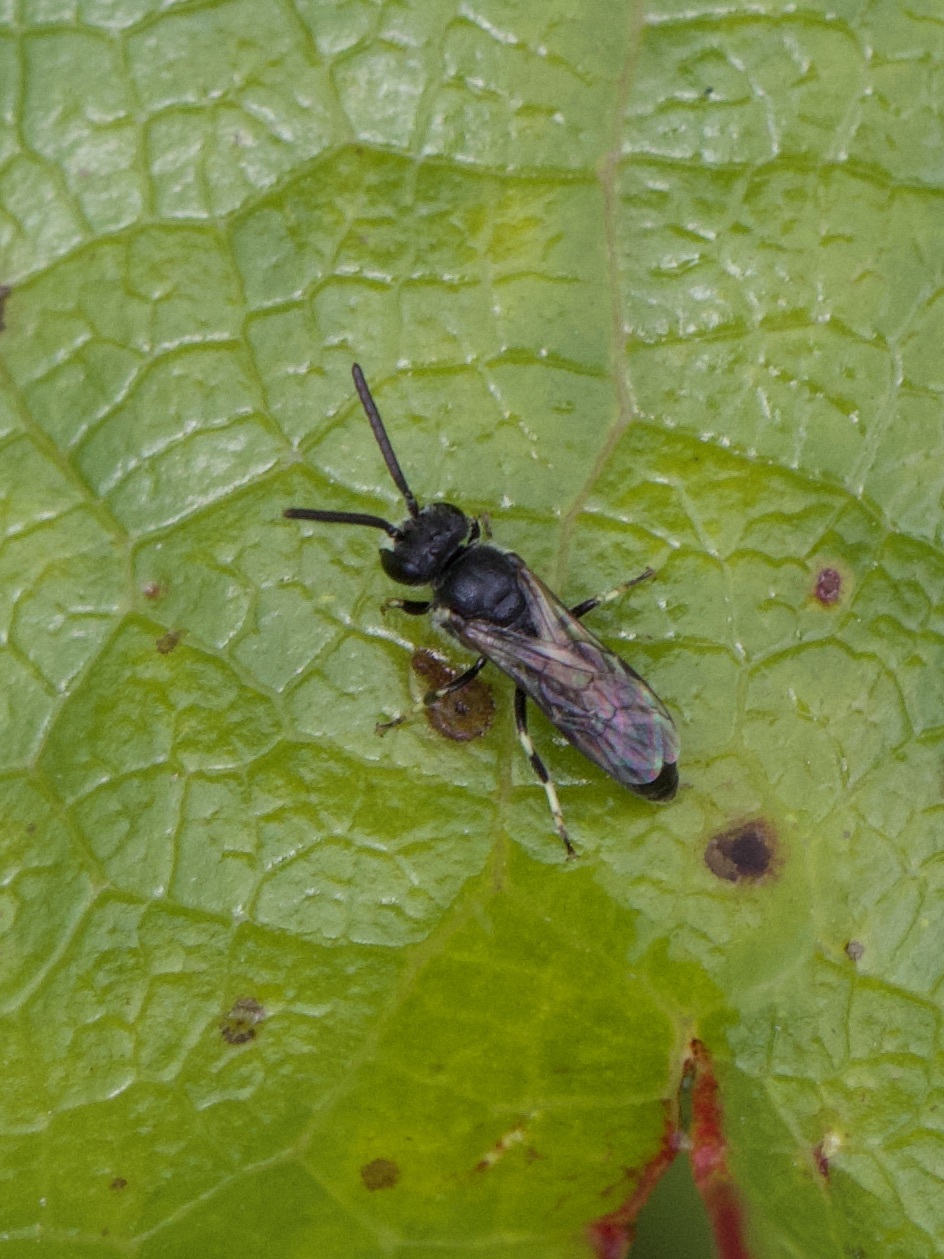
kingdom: Animalia
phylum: Arthropoda
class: Insecta
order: Hymenoptera
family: Colletidae
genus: Hylaeus
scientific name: Hylaeus hyalinatus
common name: Hyaline masked bee
